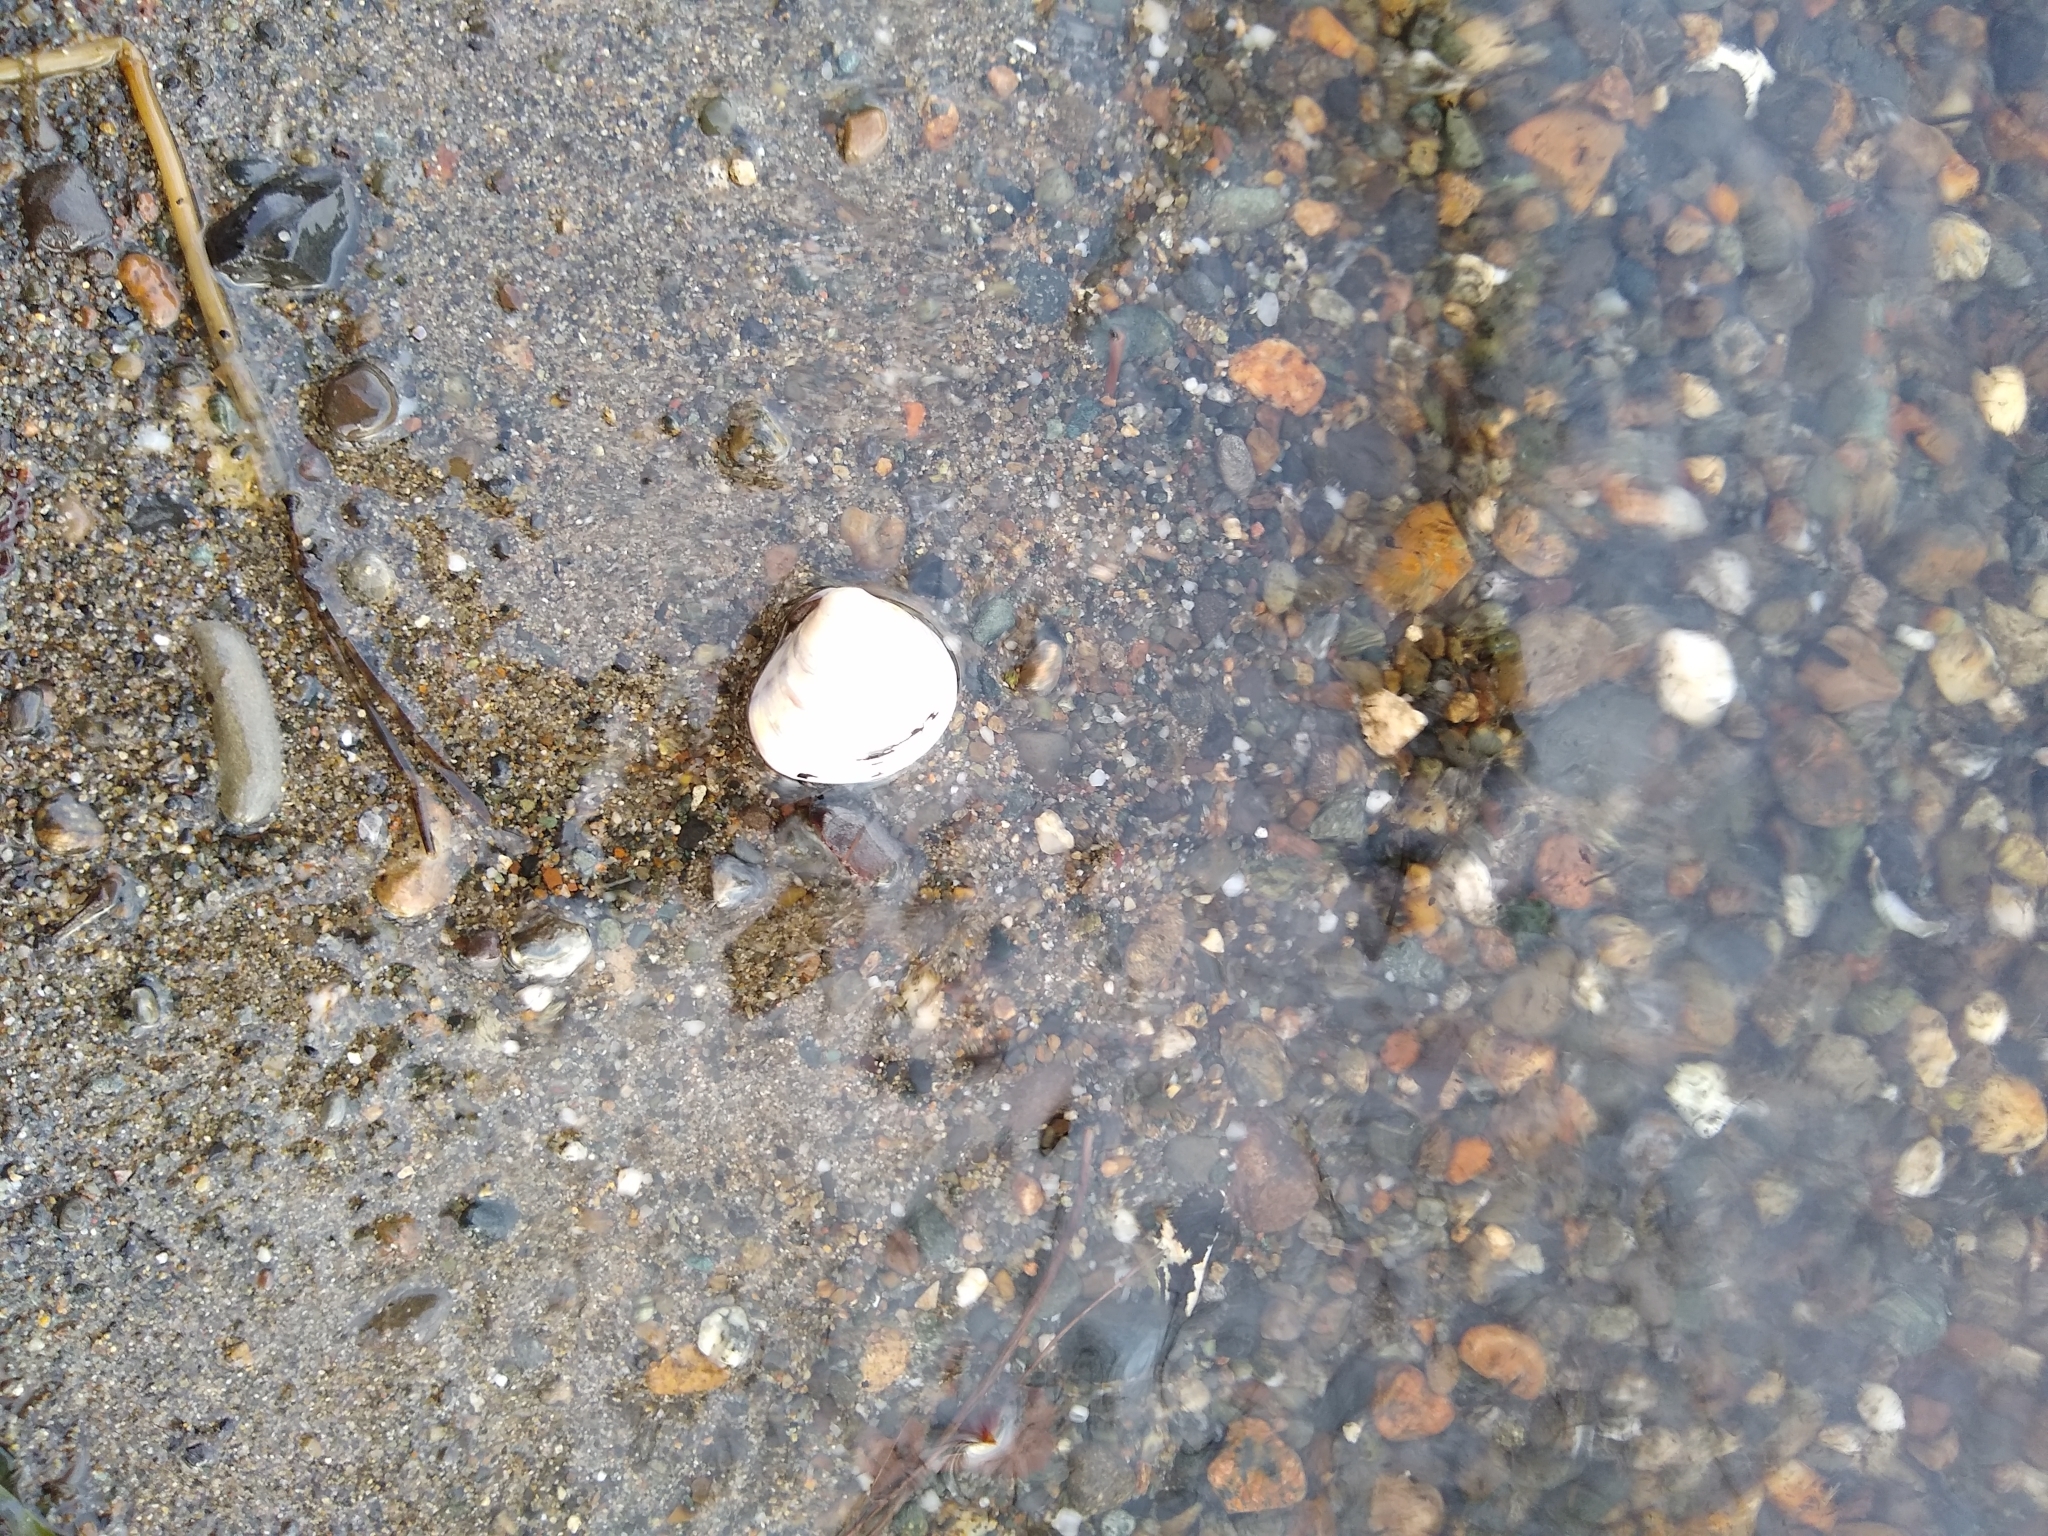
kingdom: Animalia
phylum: Mollusca
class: Bivalvia
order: Venerida
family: Cyrenidae
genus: Corbicula
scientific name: Corbicula fluminea
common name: Asian clam
